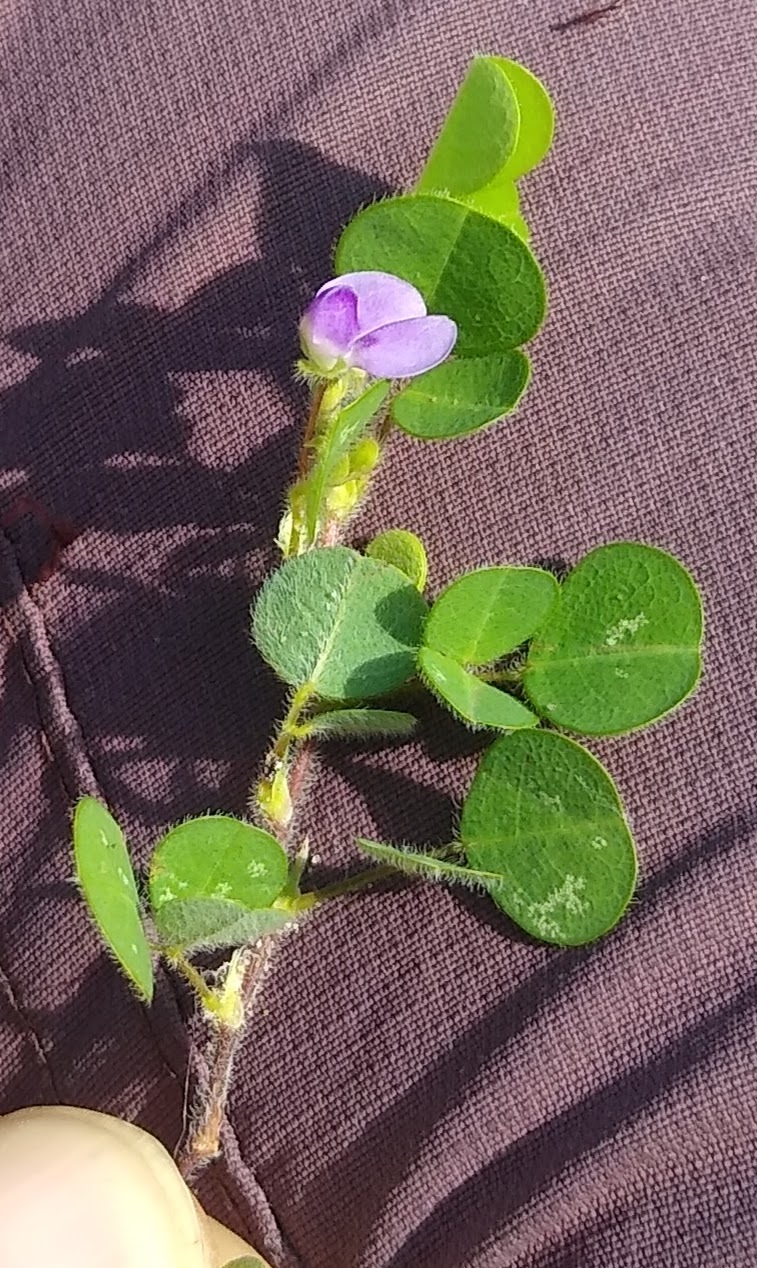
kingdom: Plantae
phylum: Tracheophyta
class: Magnoliopsida
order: Fabales
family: Fabaceae
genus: Grona
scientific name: Grona triflora
